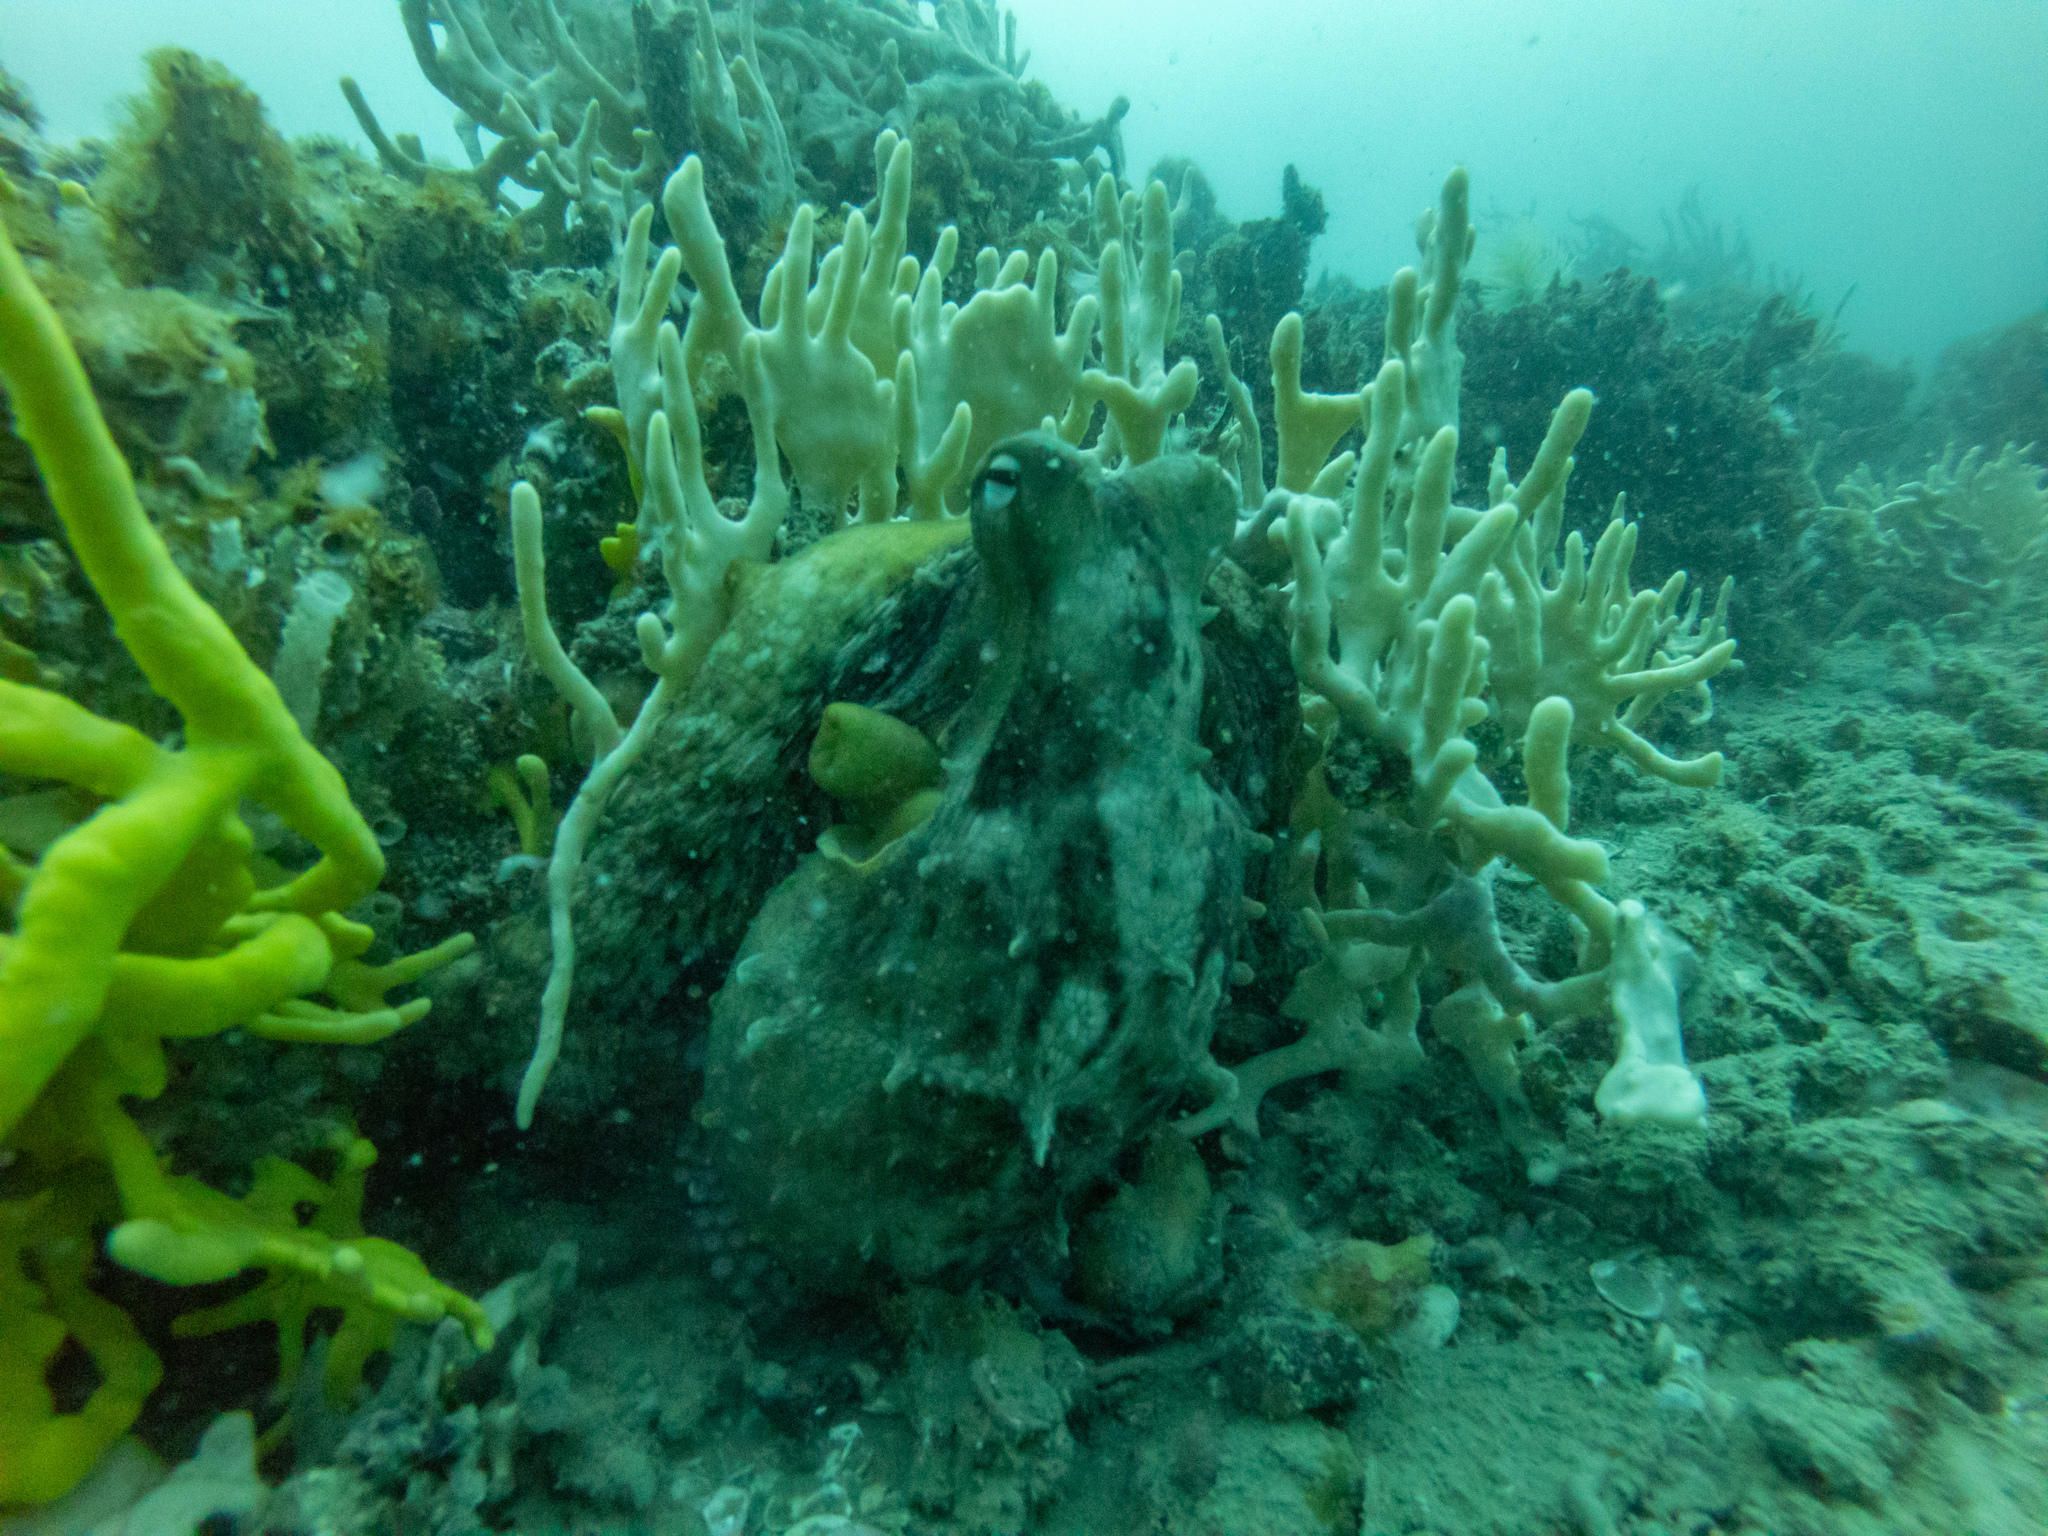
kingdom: Animalia
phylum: Mollusca
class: Cephalopoda
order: Octopoda
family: Octopodidae
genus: Octopus
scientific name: Octopus tetricus
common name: Sydney octopus
